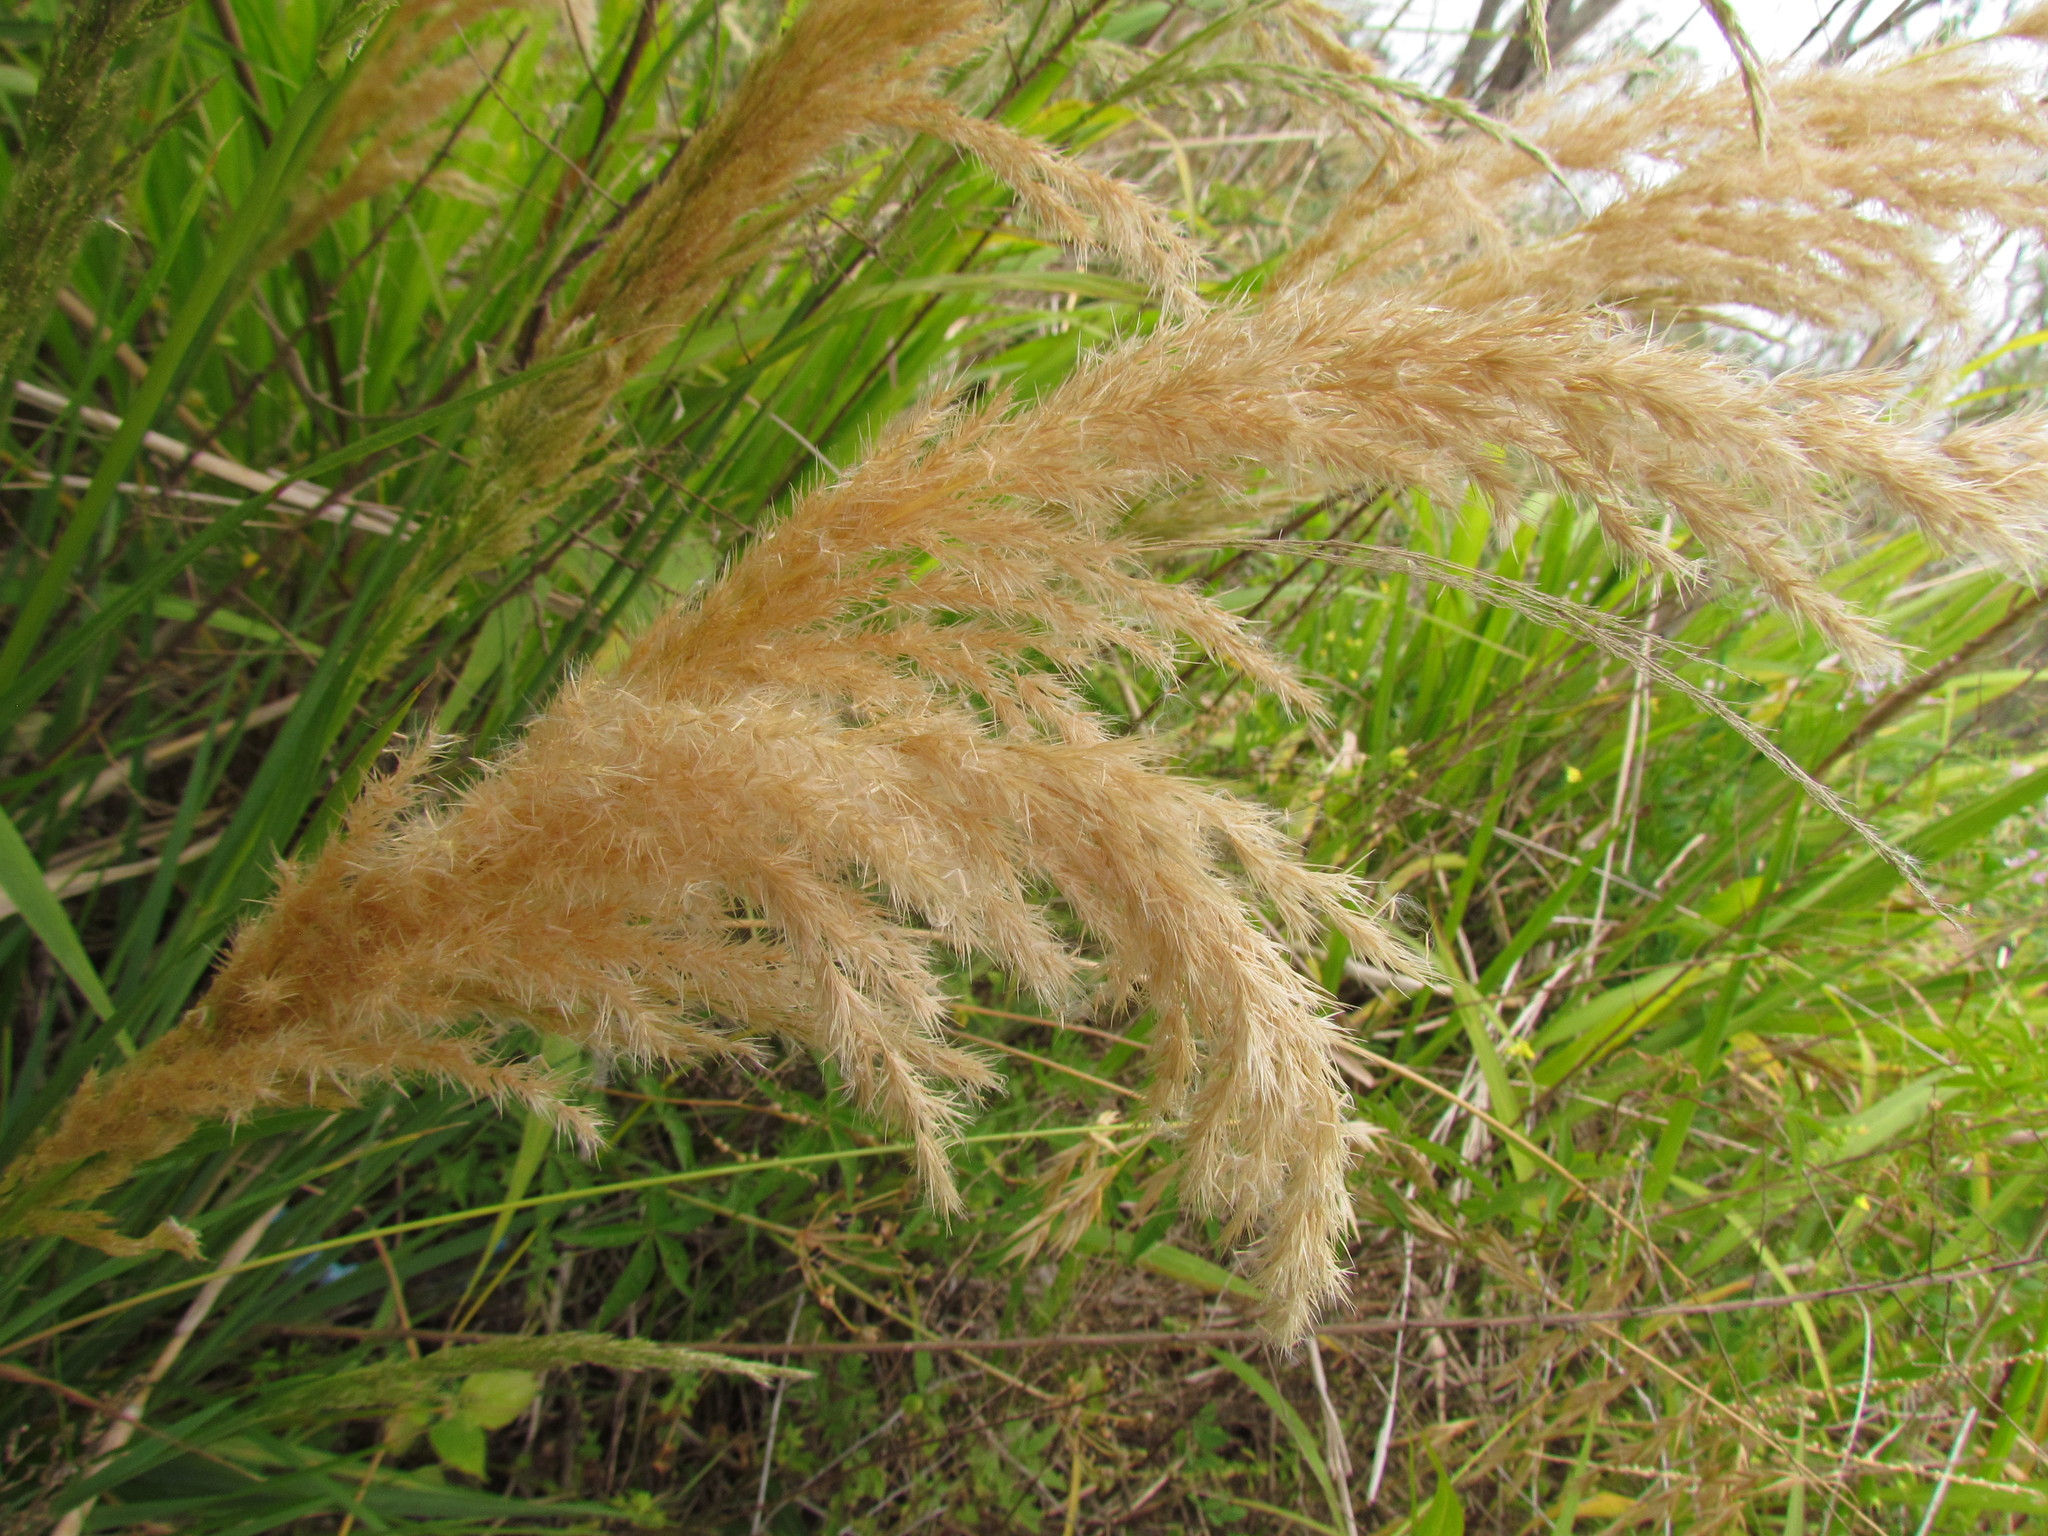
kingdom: Plantae
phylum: Tracheophyta
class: Liliopsida
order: Poales
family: Poaceae
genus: Cinnagrostis
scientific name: Cinnagrostis viridiflavescens
